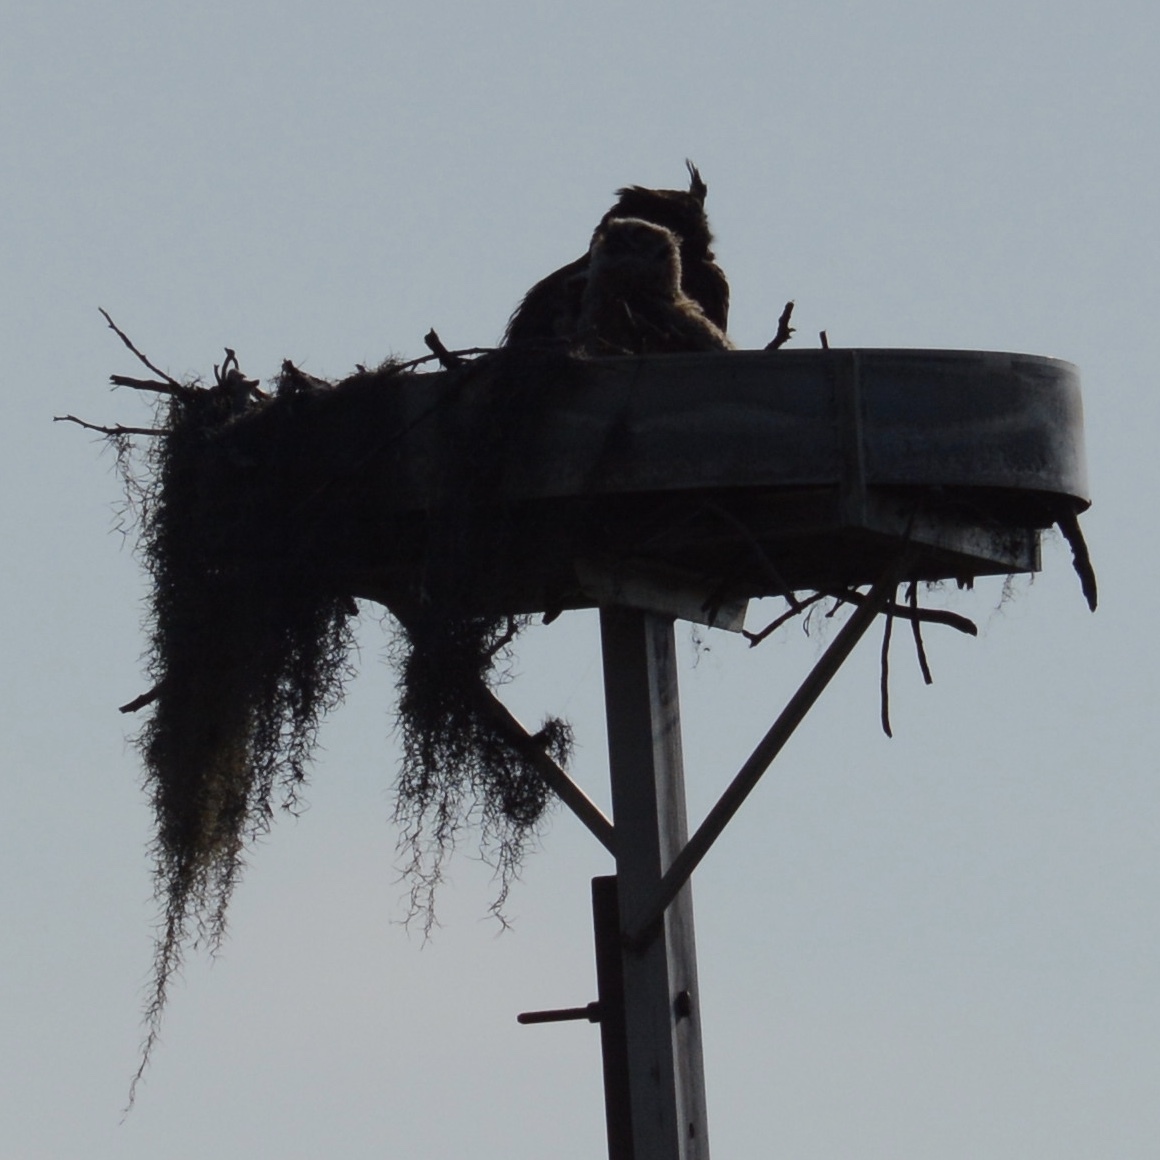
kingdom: Animalia
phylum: Chordata
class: Aves
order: Strigiformes
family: Strigidae
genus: Bubo
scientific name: Bubo virginianus
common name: Great horned owl
